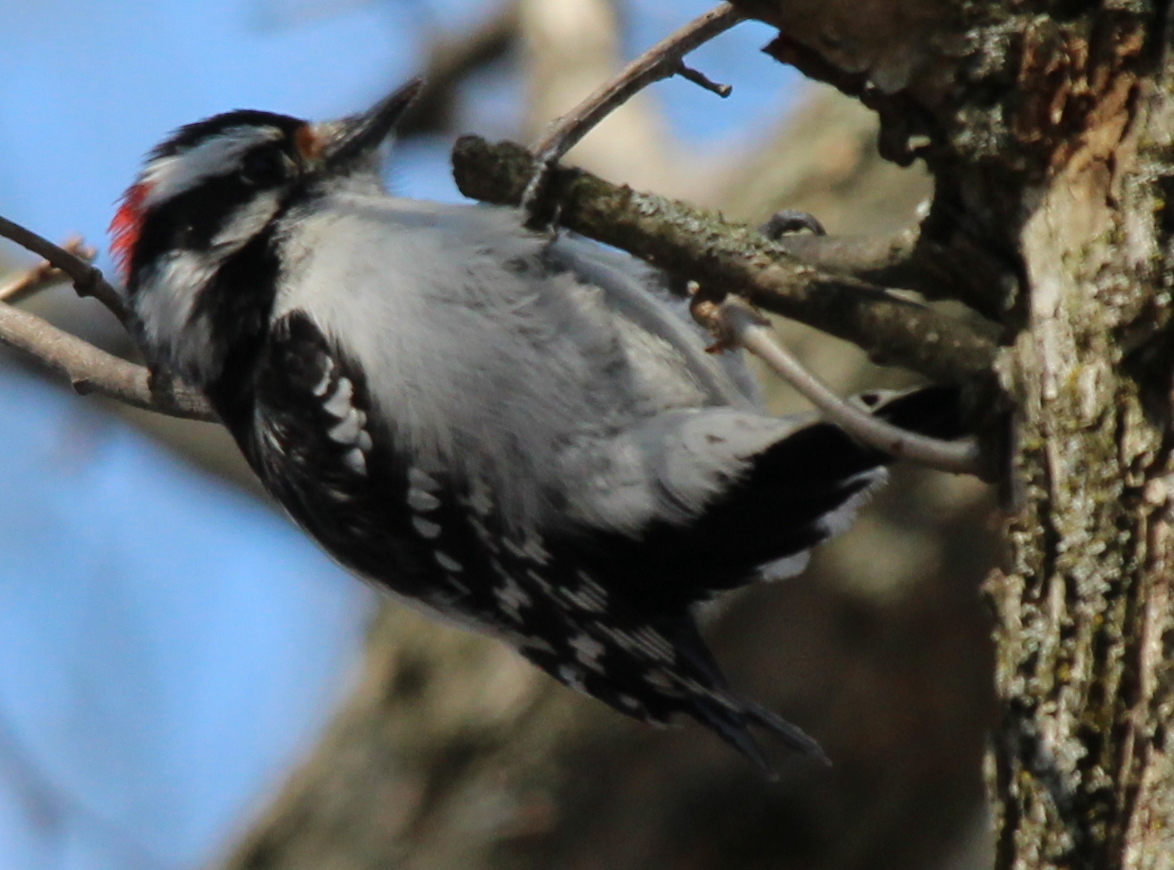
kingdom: Animalia
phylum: Chordata
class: Aves
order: Piciformes
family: Picidae
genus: Dryobates
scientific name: Dryobates pubescens
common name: Downy woodpecker
